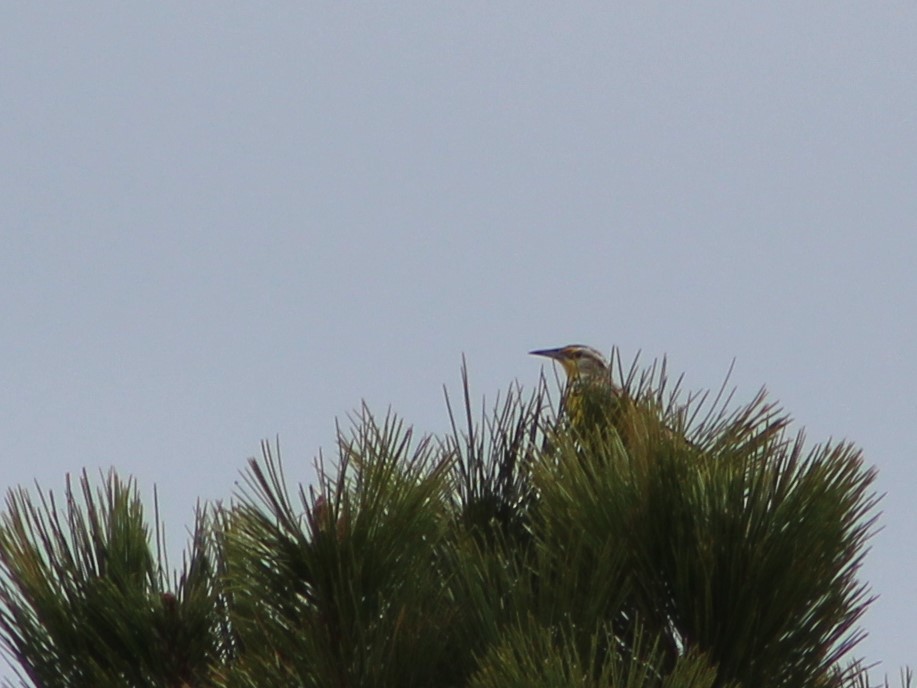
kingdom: Animalia
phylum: Chordata
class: Aves
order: Passeriformes
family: Icteridae
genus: Sturnella
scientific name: Sturnella neglecta
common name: Western meadowlark
